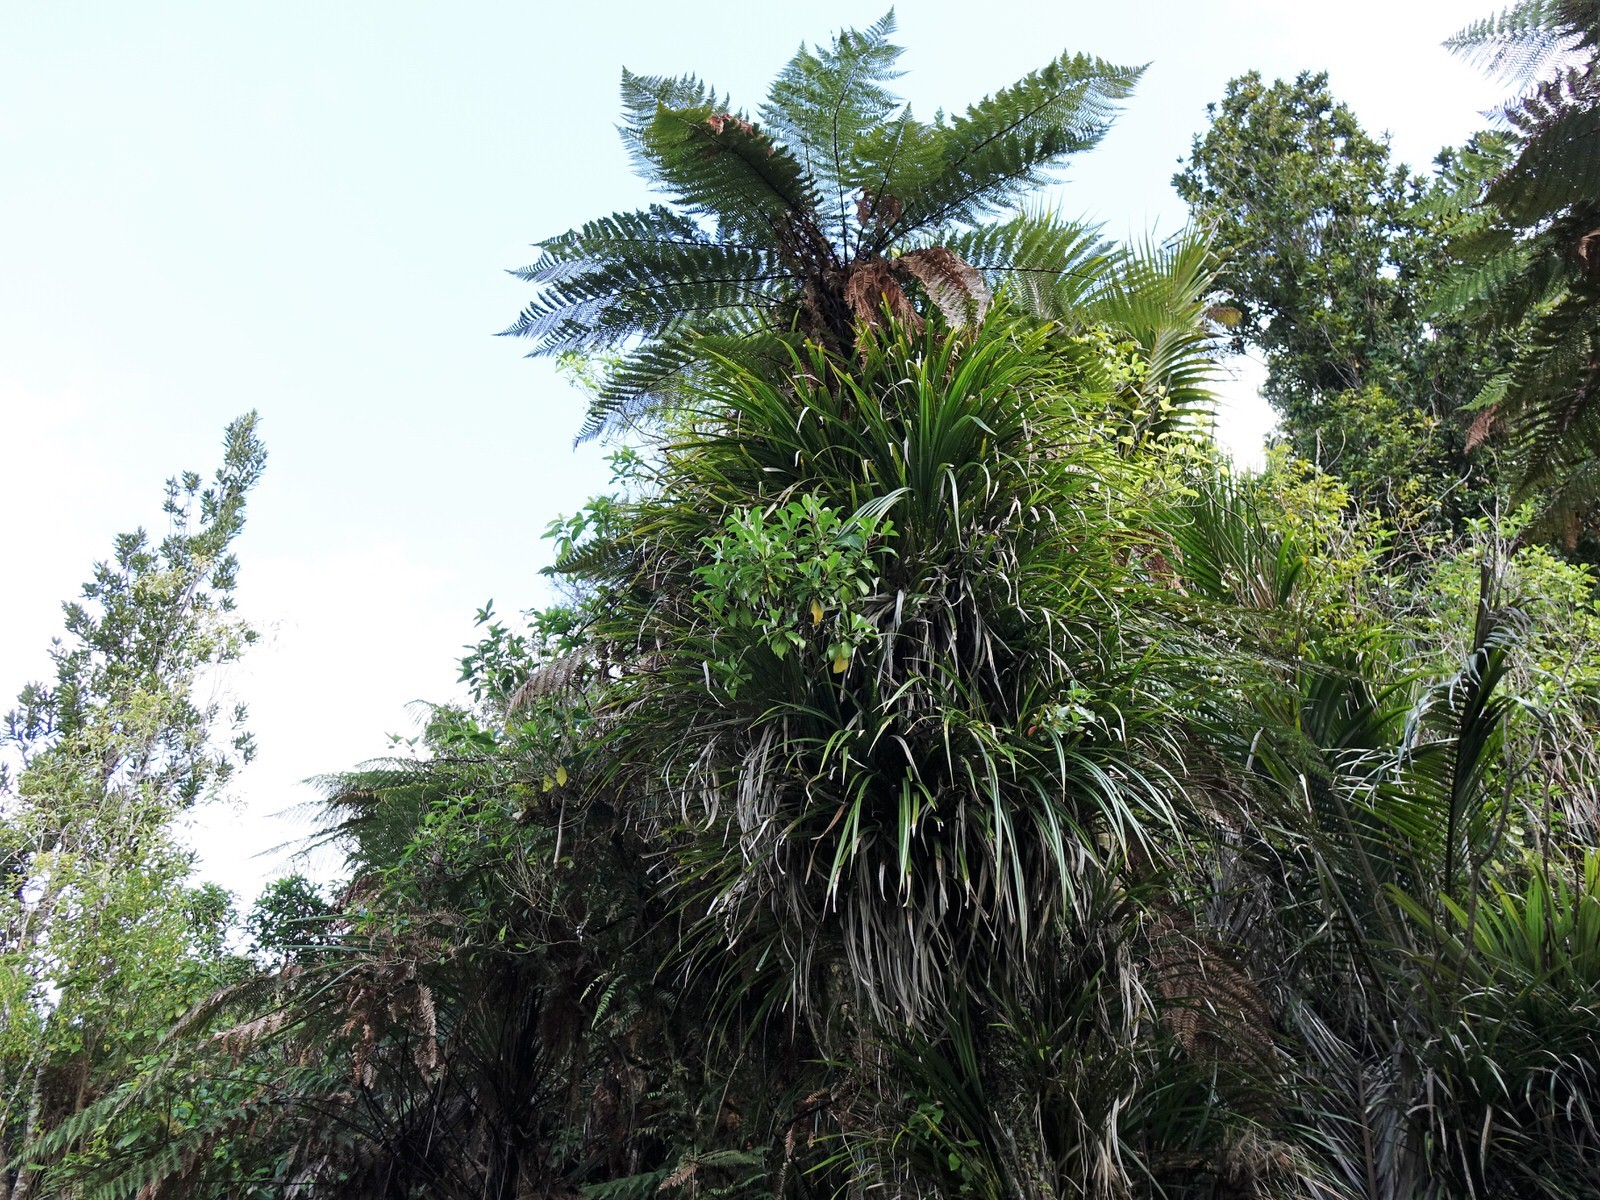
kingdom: Plantae
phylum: Tracheophyta
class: Magnoliopsida
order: Asterales
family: Asteraceae
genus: Brachyglottis
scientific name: Brachyglottis kirkii
